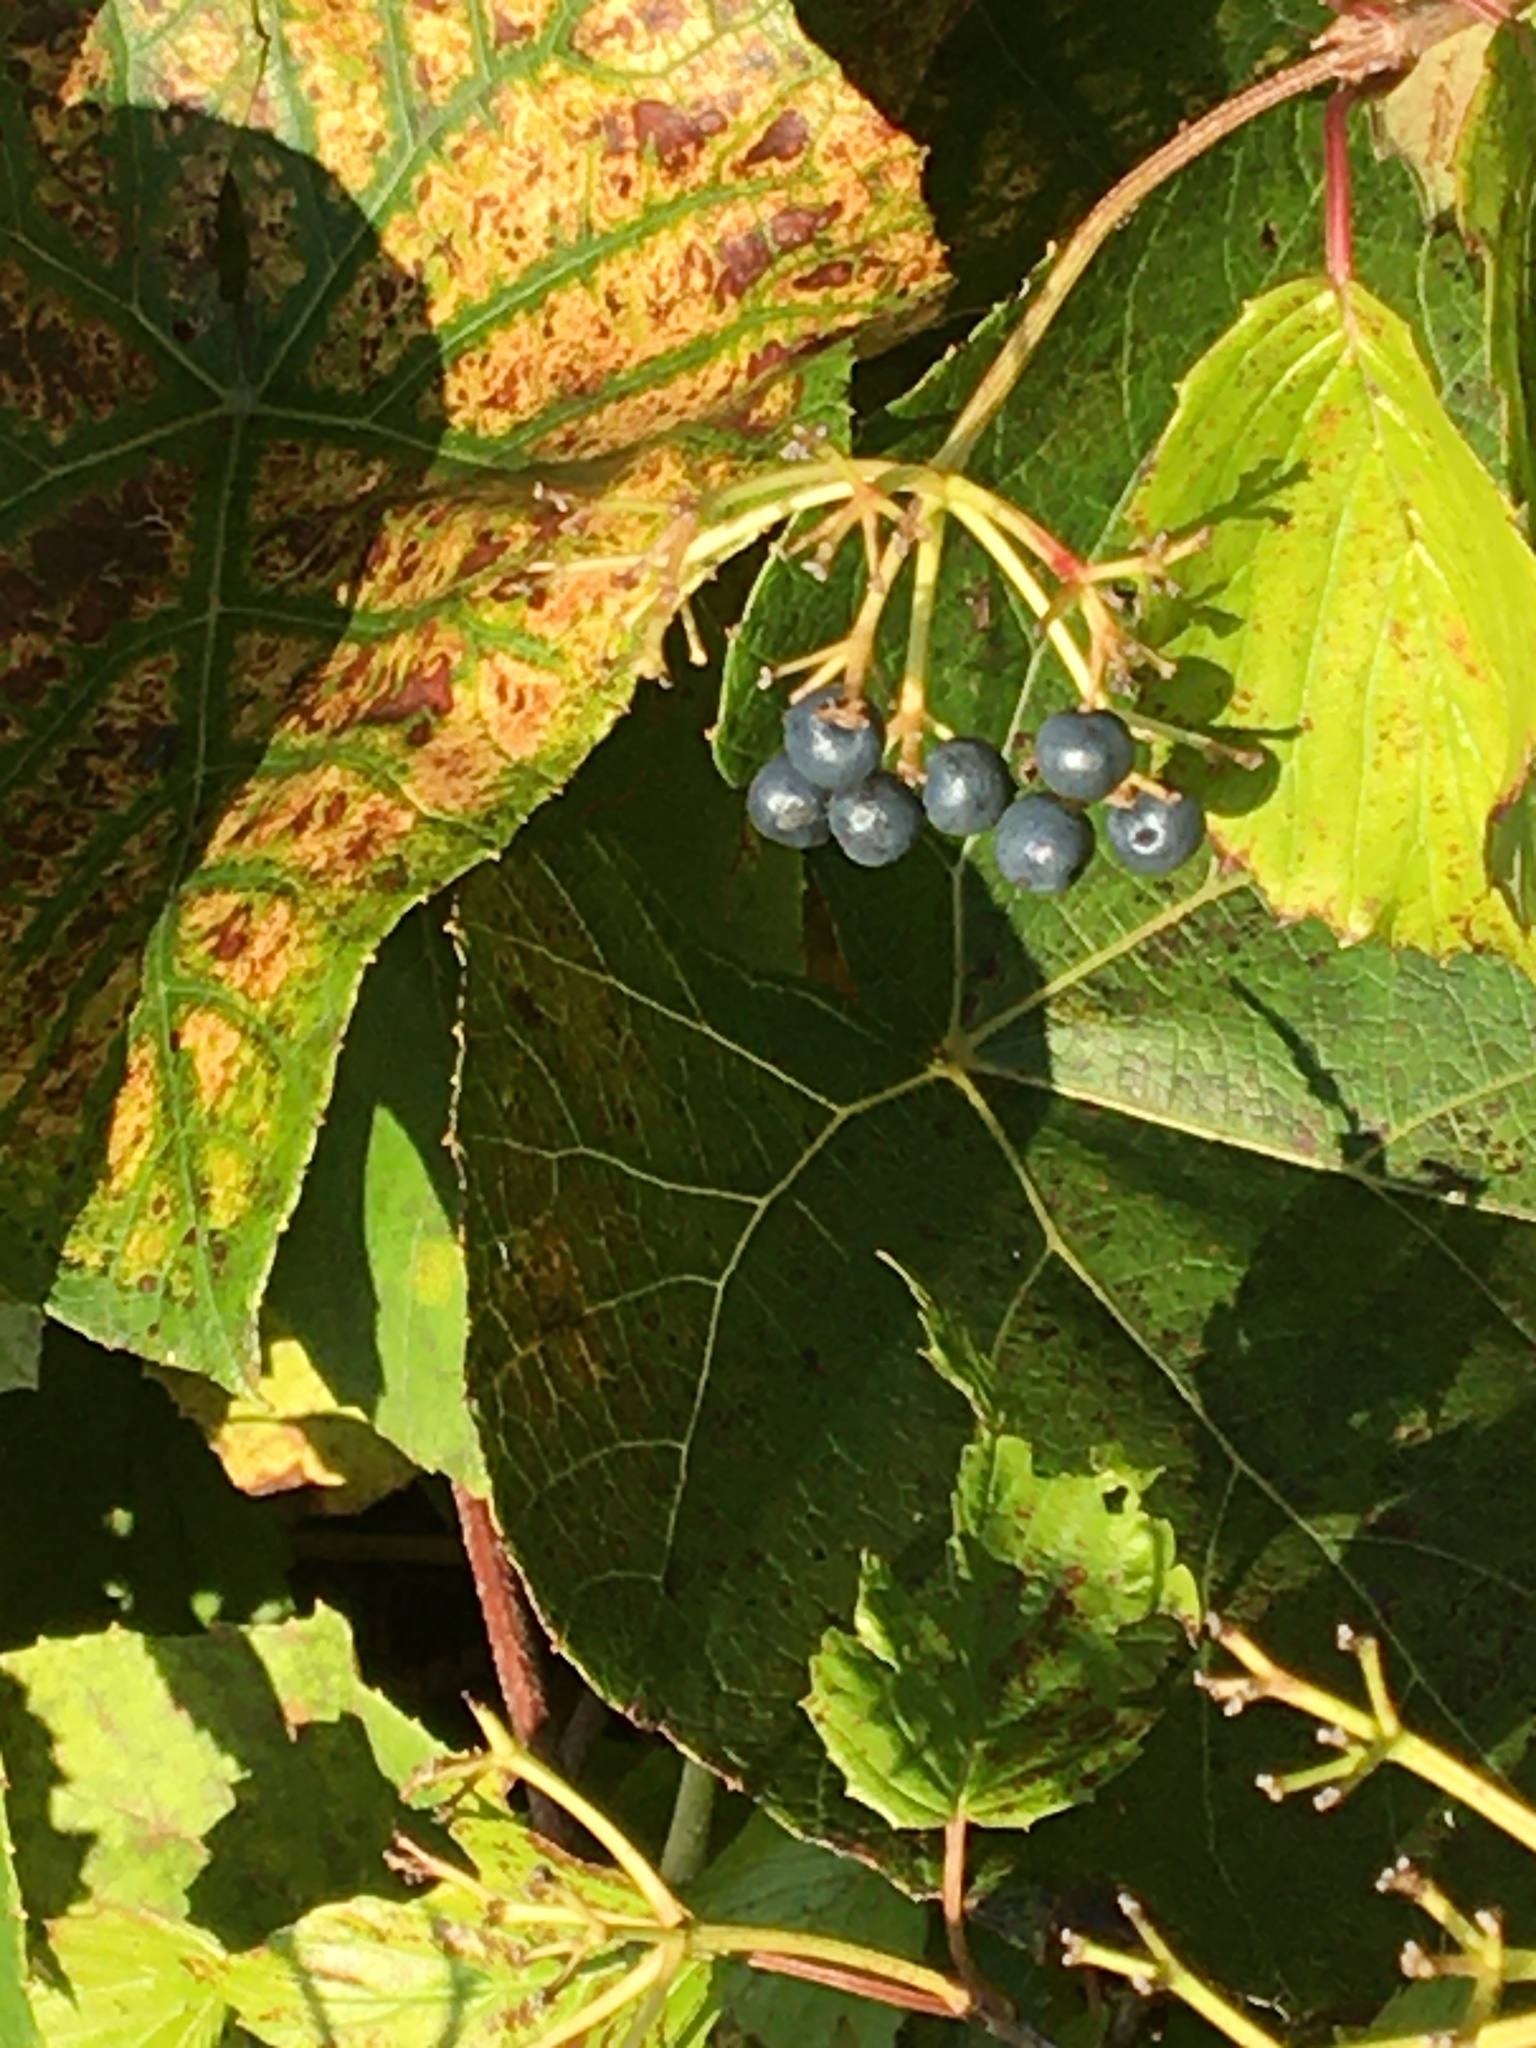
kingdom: Plantae
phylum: Tracheophyta
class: Magnoliopsida
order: Dipsacales
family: Viburnaceae
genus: Viburnum
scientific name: Viburnum dentatum
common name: Arrow-wood
